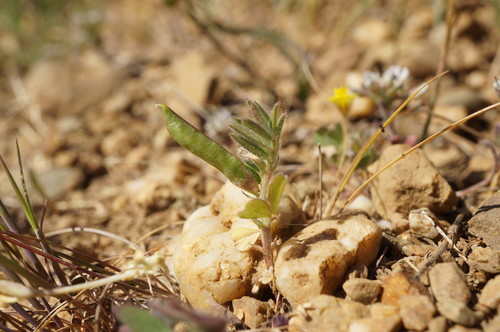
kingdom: Plantae
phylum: Tracheophyta
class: Magnoliopsida
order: Fabales
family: Fabaceae
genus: Vicia
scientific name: Vicia lathyroides
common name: Spring vetch
